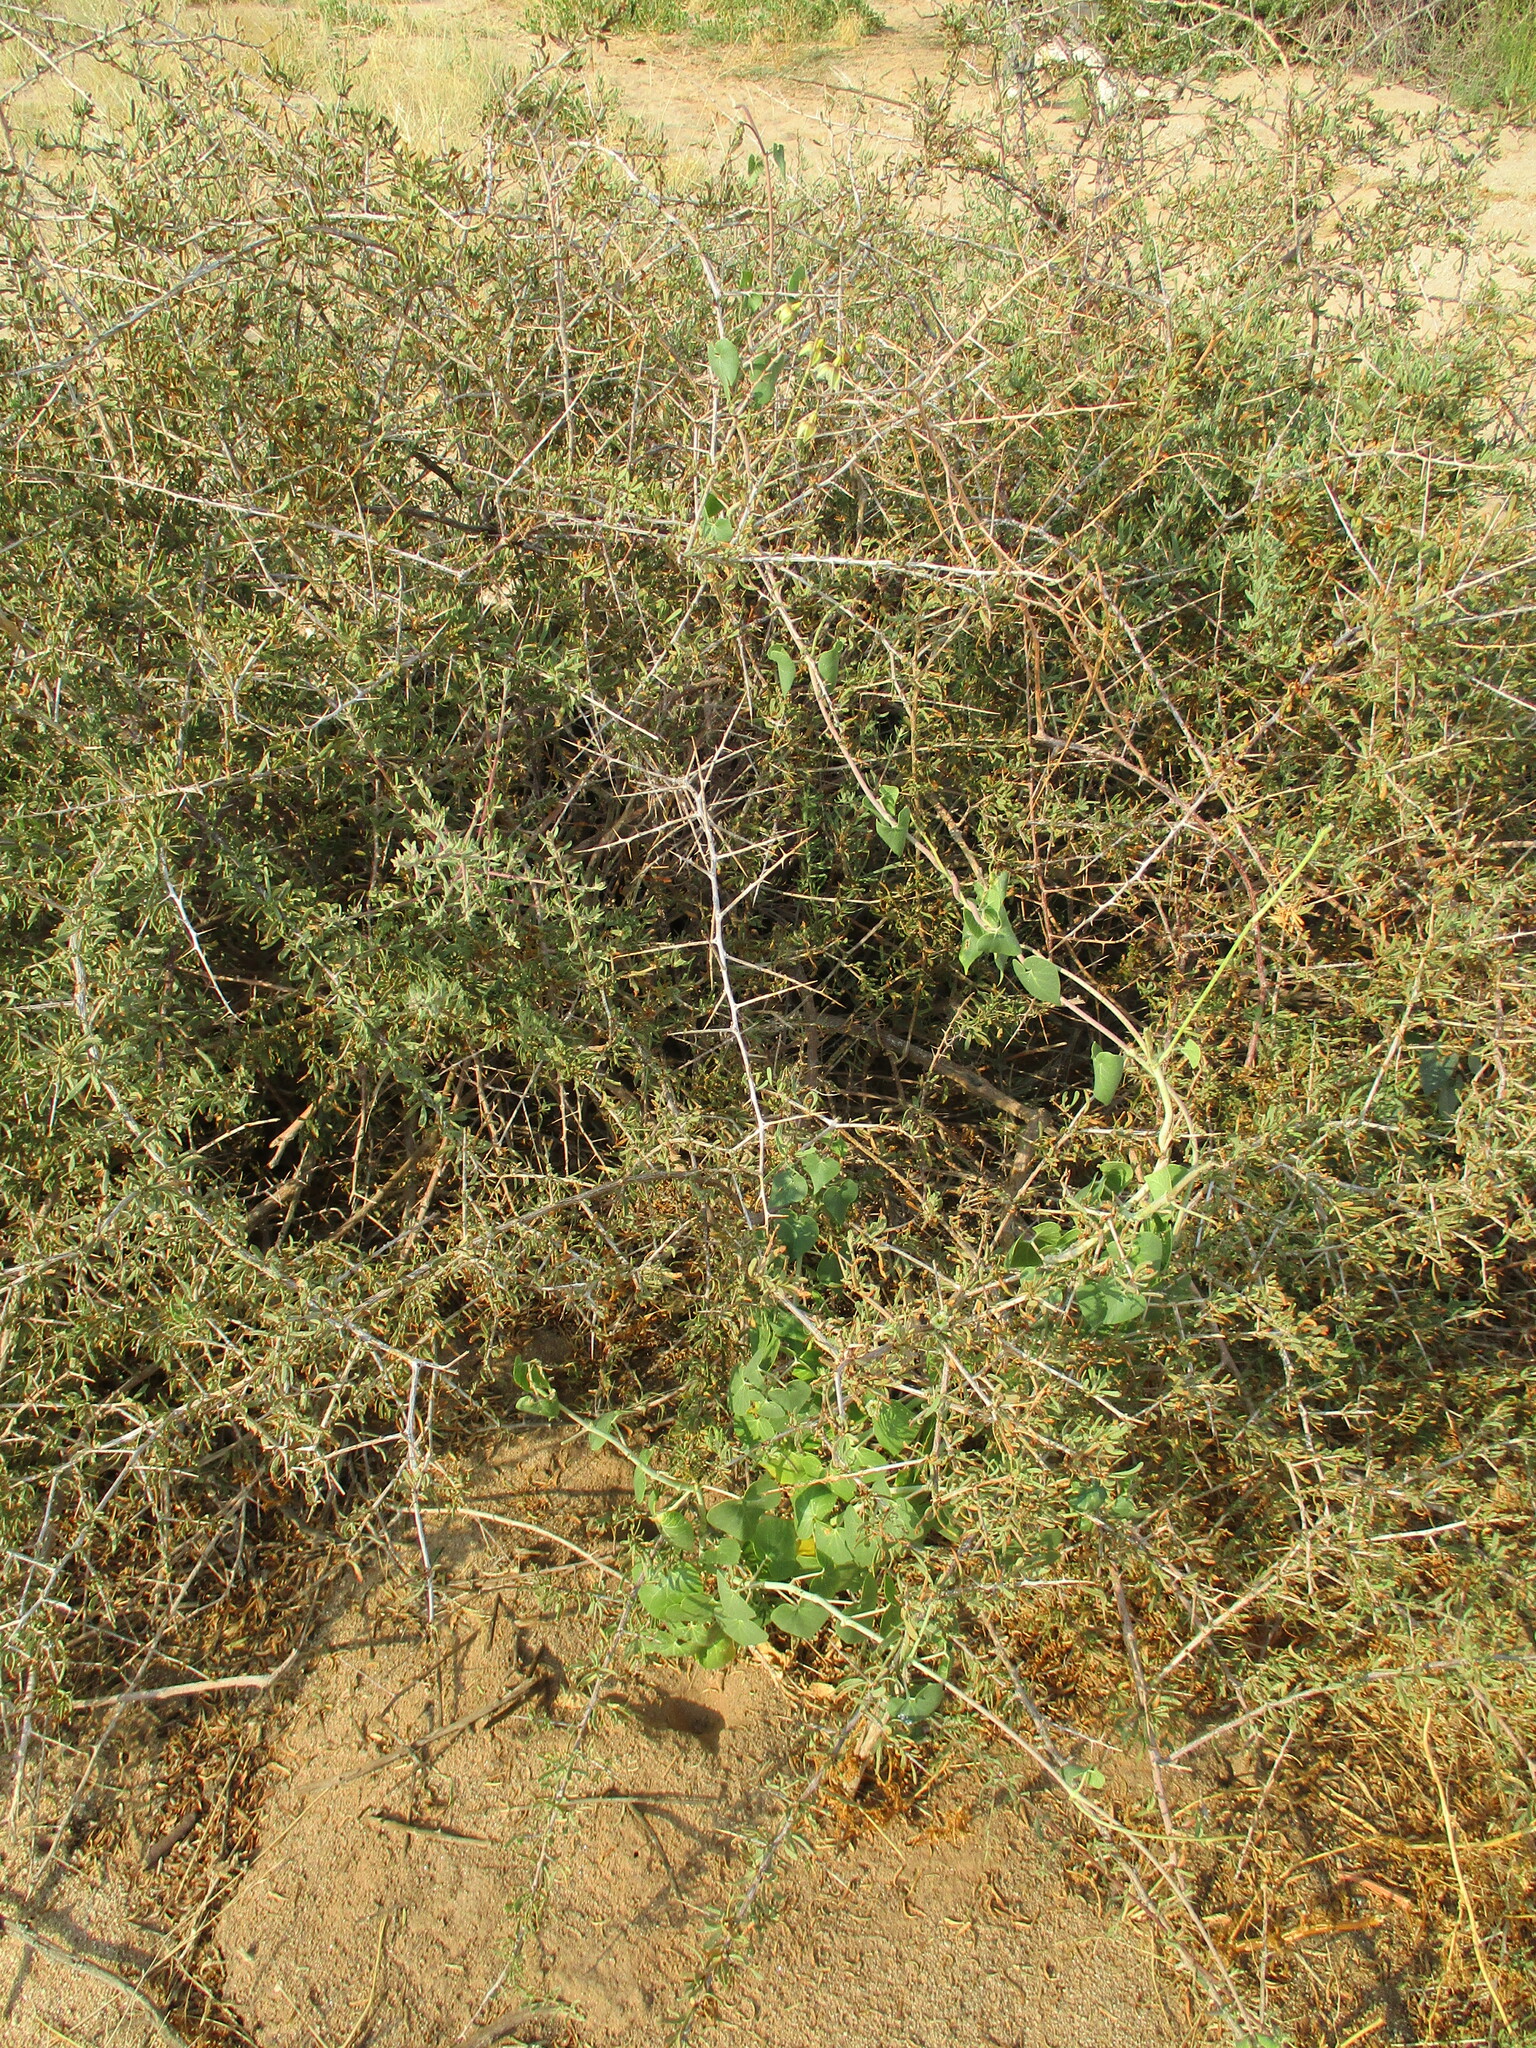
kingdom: Plantae
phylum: Tracheophyta
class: Magnoliopsida
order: Gentianales
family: Apocynaceae
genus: Pergularia
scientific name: Pergularia daemia
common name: Trellis-vine
